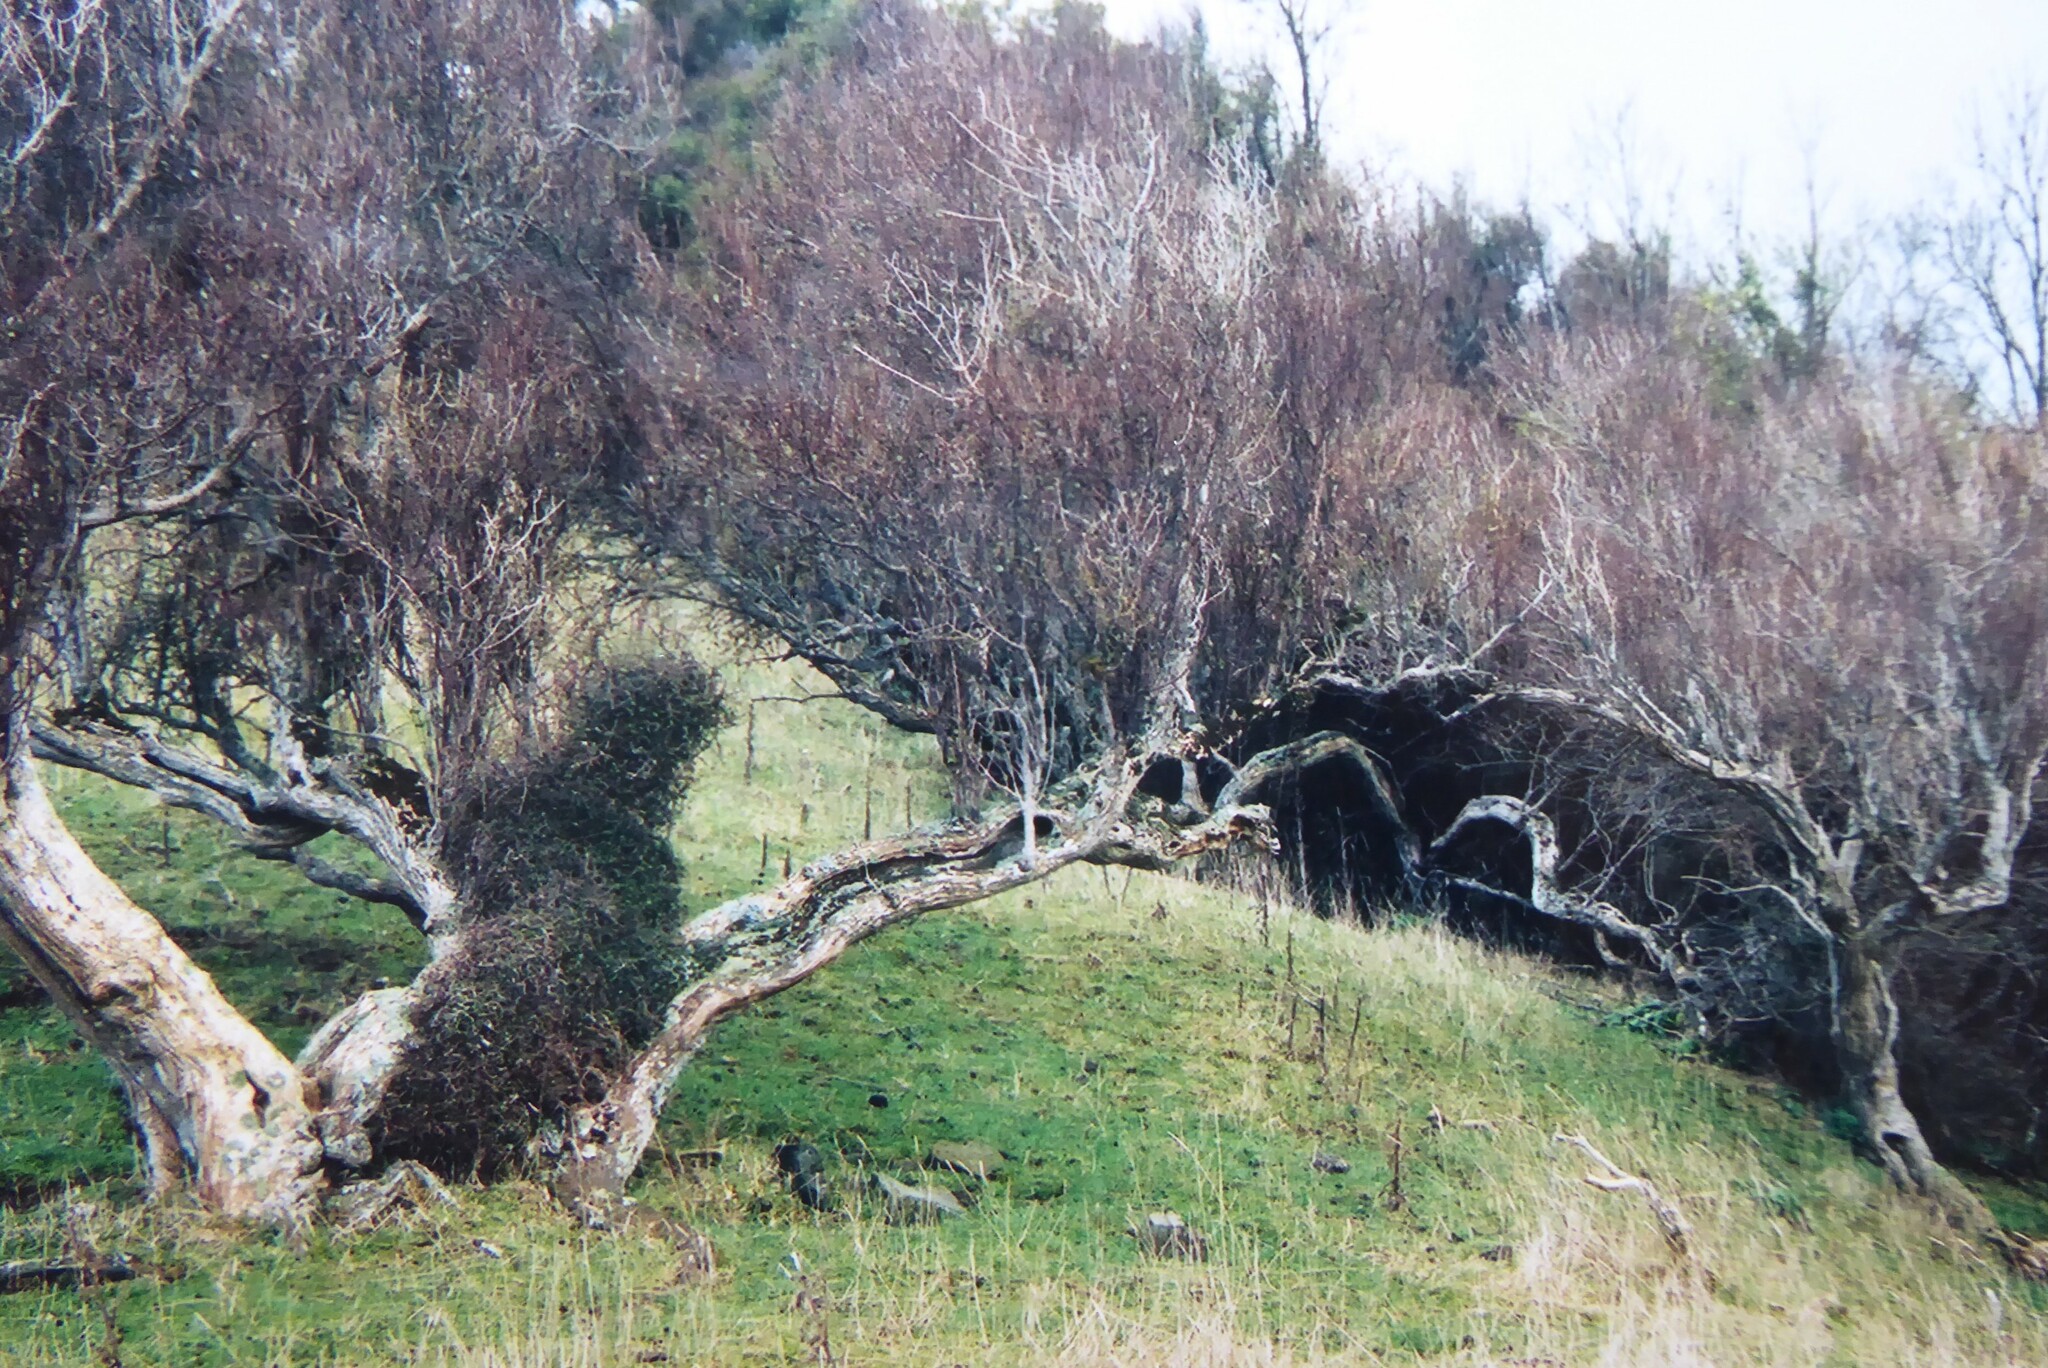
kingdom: Plantae
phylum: Tracheophyta
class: Magnoliopsida
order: Asterales
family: Asteraceae
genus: Olearia
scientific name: Olearia hectorii
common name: Deciduous tree daisy
